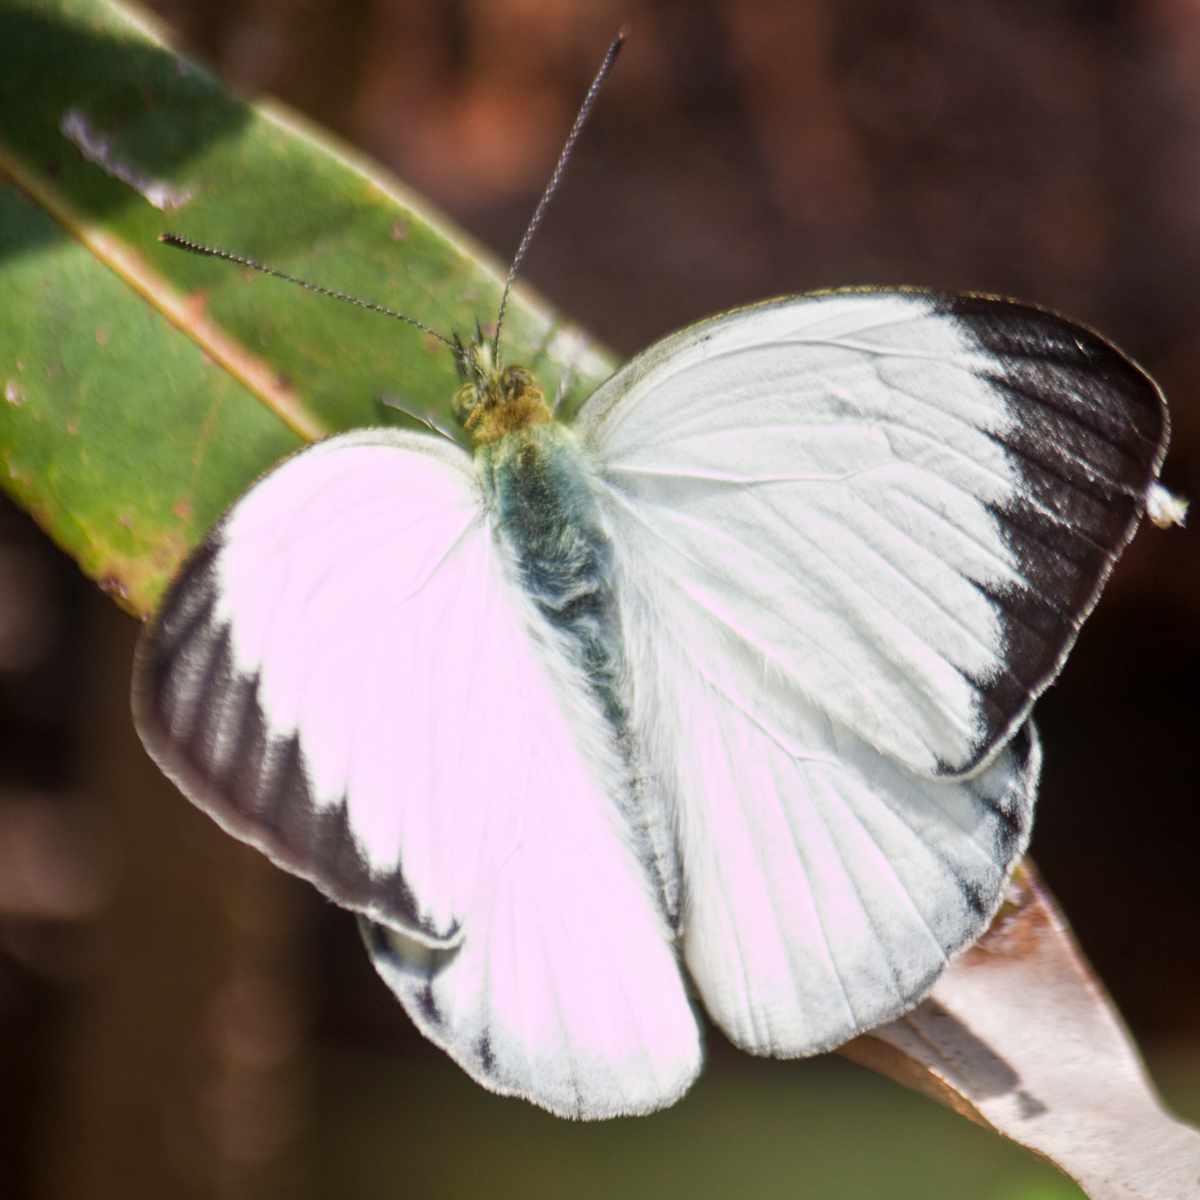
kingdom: Animalia
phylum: Arthropoda
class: Insecta
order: Lepidoptera
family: Pieridae
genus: Cepora
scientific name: Cepora nadina
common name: Lesser gull
